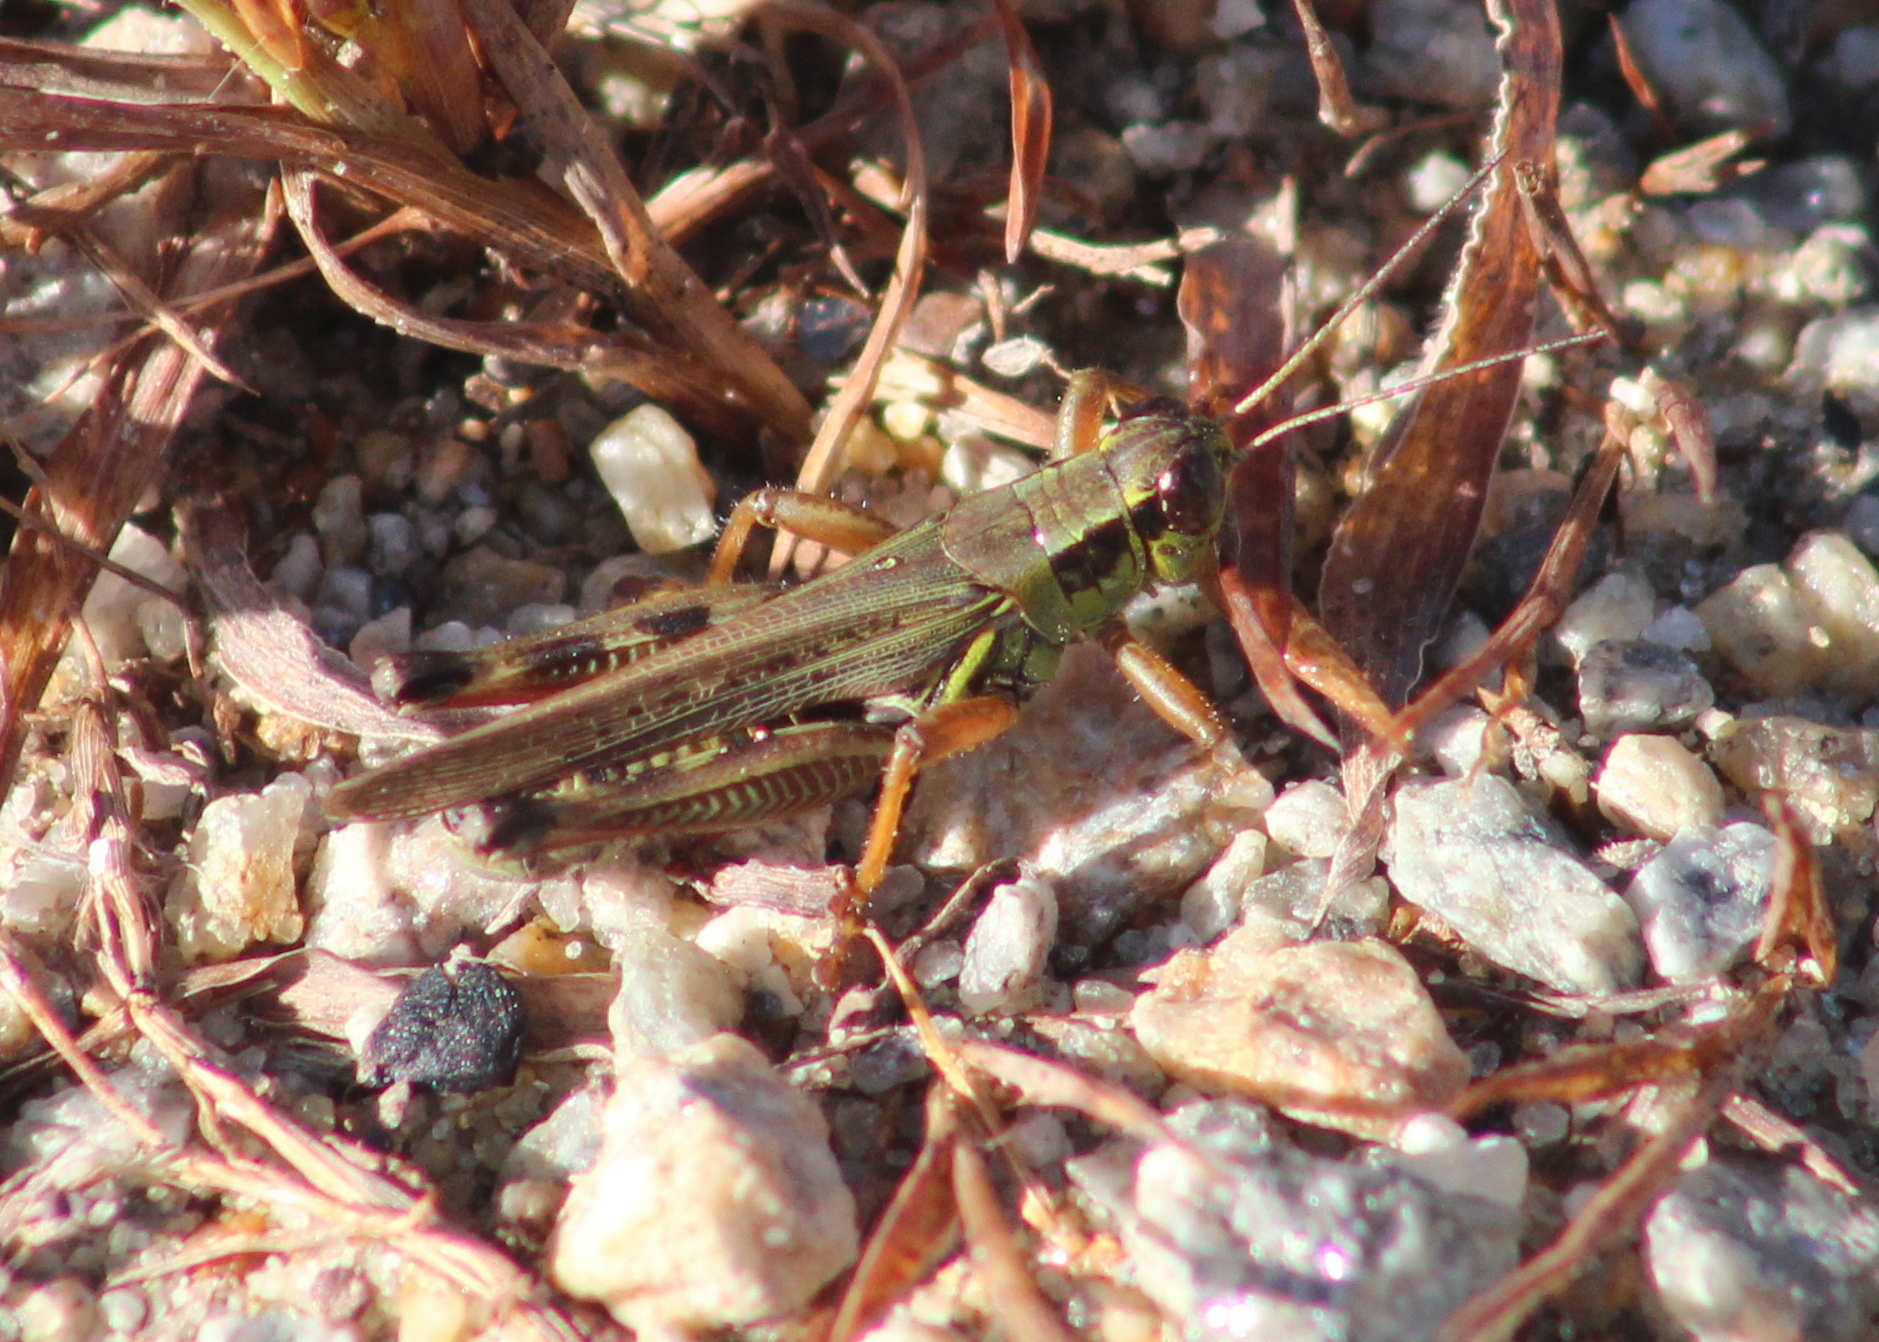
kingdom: Animalia
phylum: Arthropoda
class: Insecta
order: Orthoptera
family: Acrididae
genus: Melanoplus
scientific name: Melanoplus femurrubrum
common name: Red-legged grasshopper
